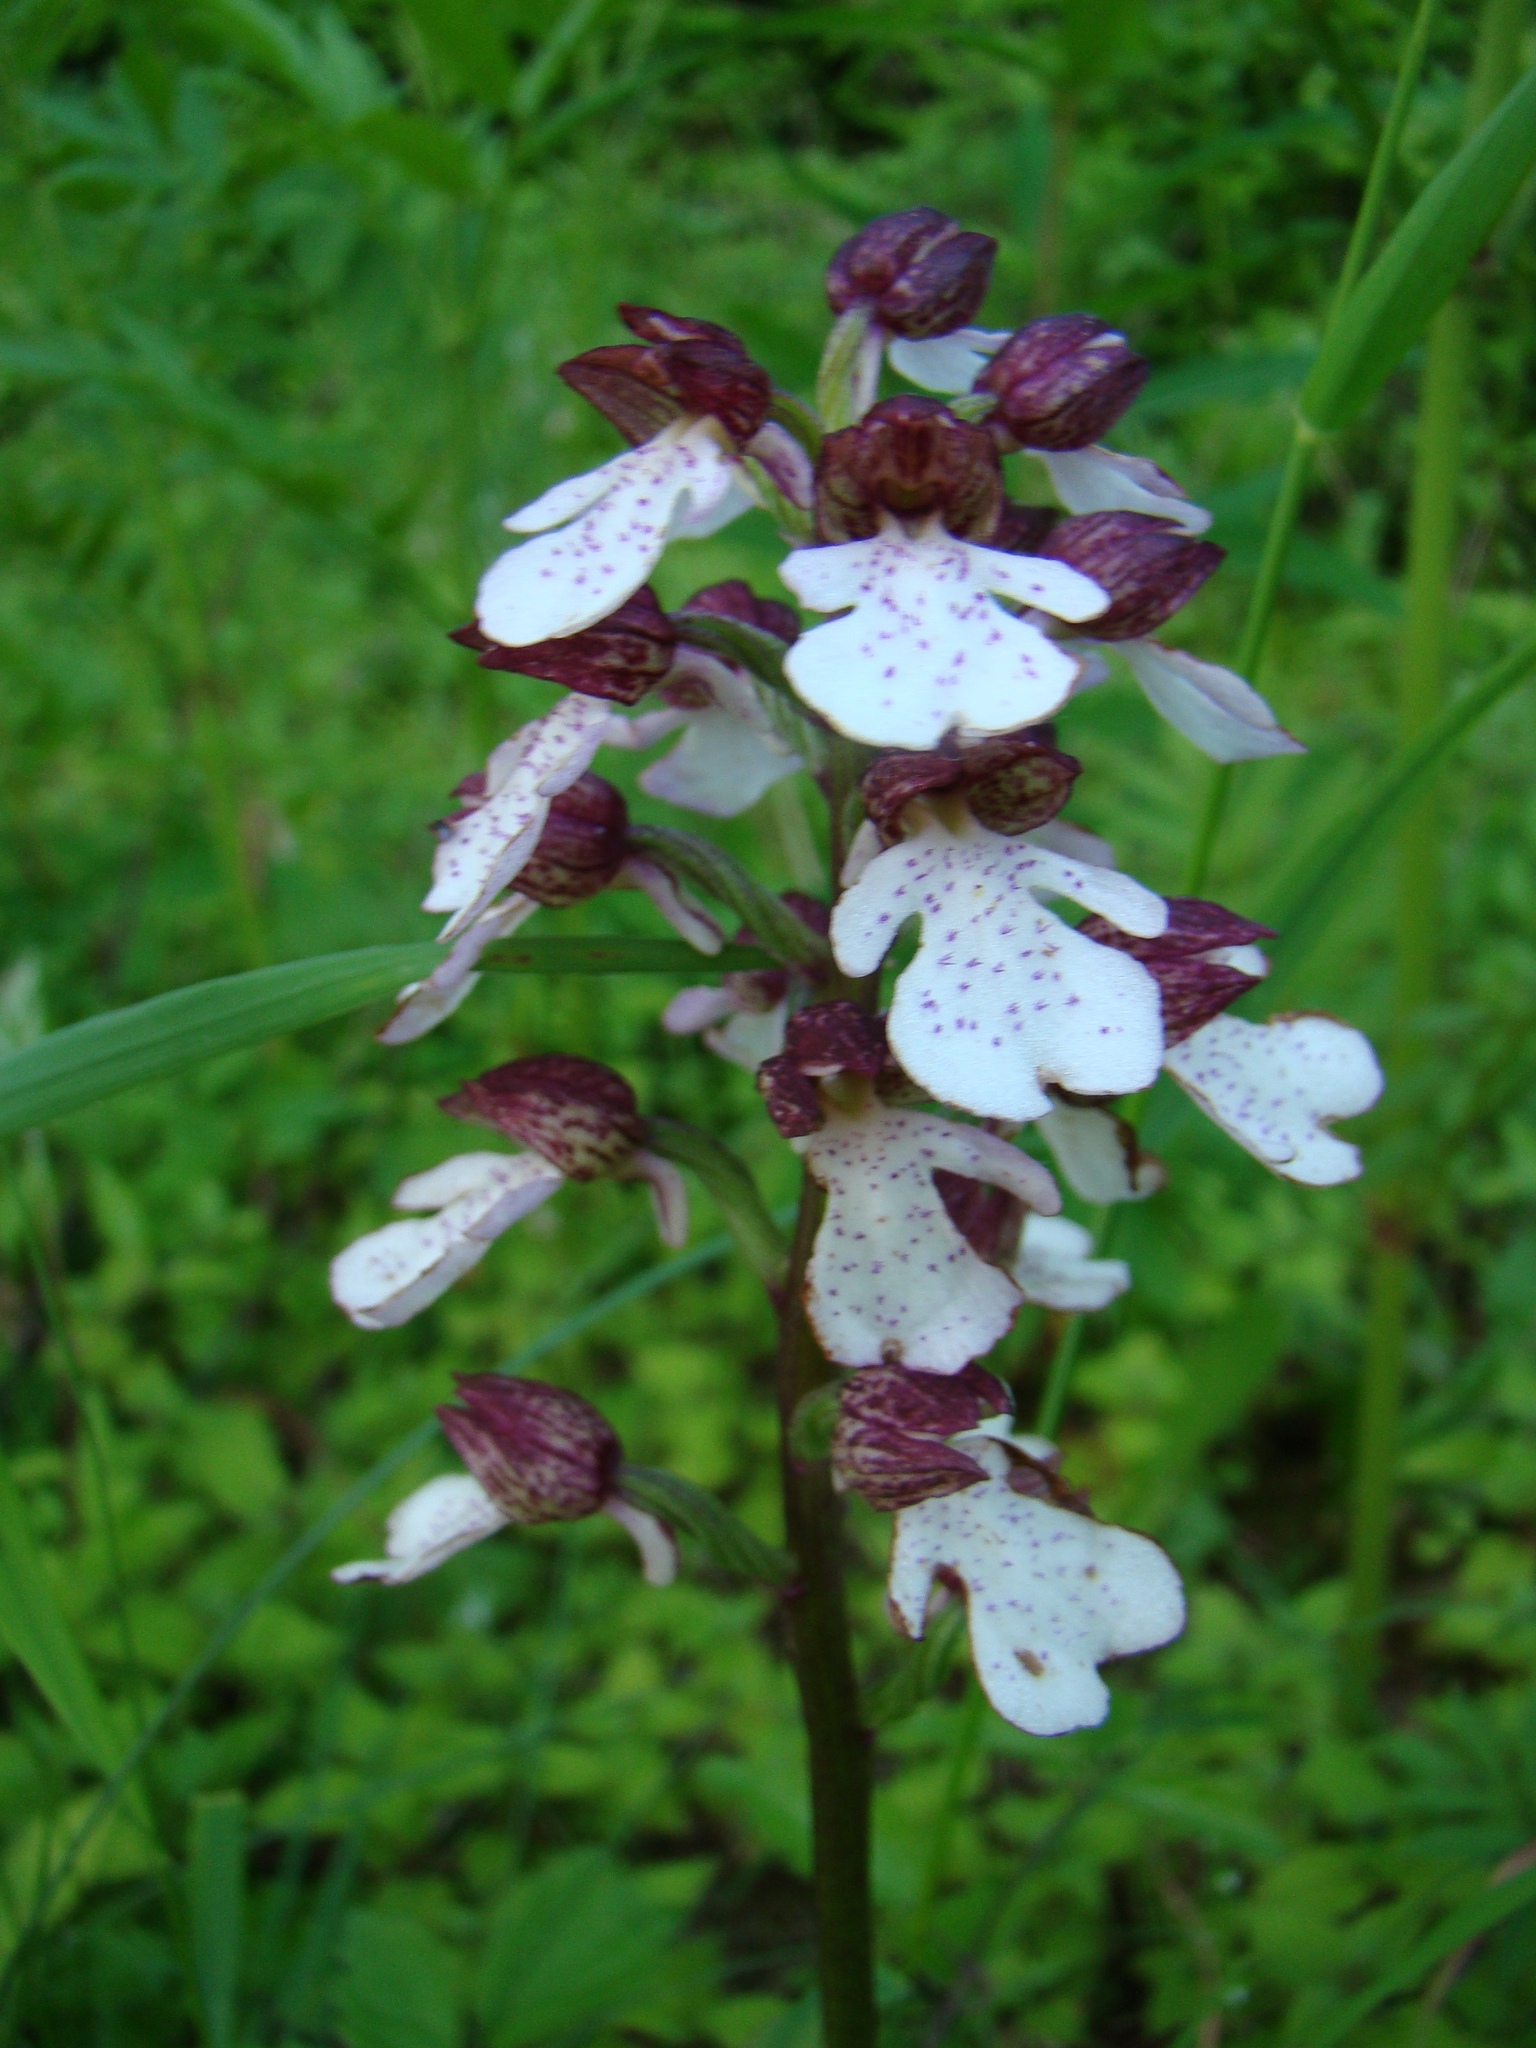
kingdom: Plantae
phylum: Tracheophyta
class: Liliopsida
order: Asparagales
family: Orchidaceae
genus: Orchis
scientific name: Orchis purpurea
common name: Lady orchid
